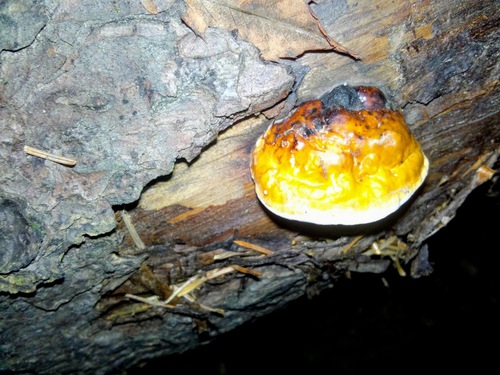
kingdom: Fungi
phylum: Basidiomycota
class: Agaricomycetes
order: Polyporales
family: Fomitopsidaceae
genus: Fomitopsis
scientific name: Fomitopsis pinicola
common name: Red-belted bracket
